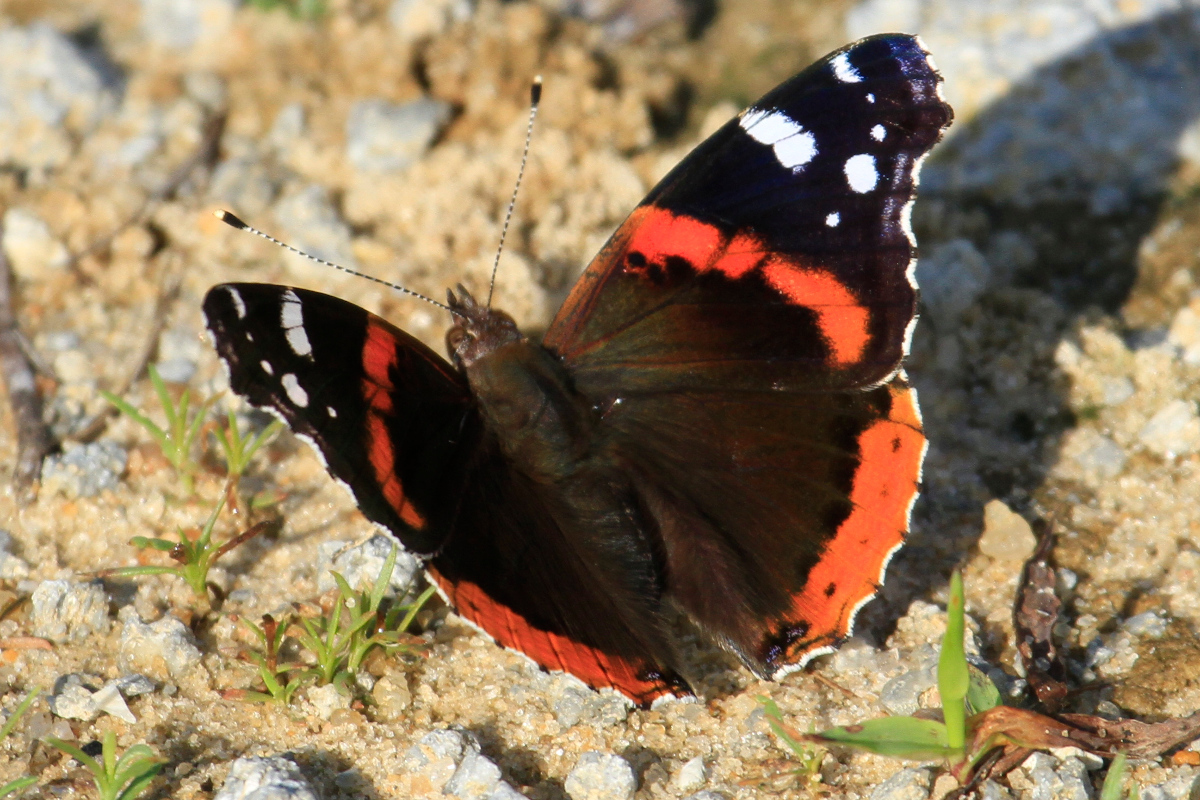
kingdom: Animalia
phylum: Arthropoda
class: Insecta
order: Lepidoptera
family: Nymphalidae
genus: Vanessa
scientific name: Vanessa atalanta
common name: Red admiral
